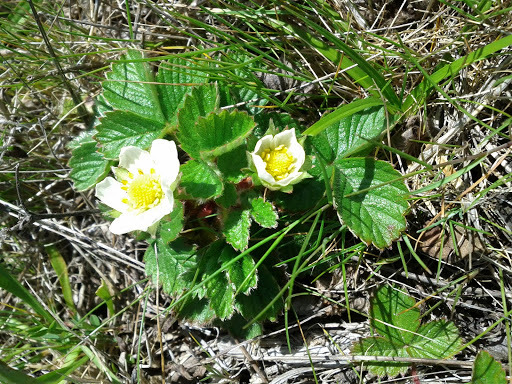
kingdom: Plantae
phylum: Tracheophyta
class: Magnoliopsida
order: Rosales
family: Rosaceae
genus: Fragaria
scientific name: Fragaria chiloensis
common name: Beach strawberry
